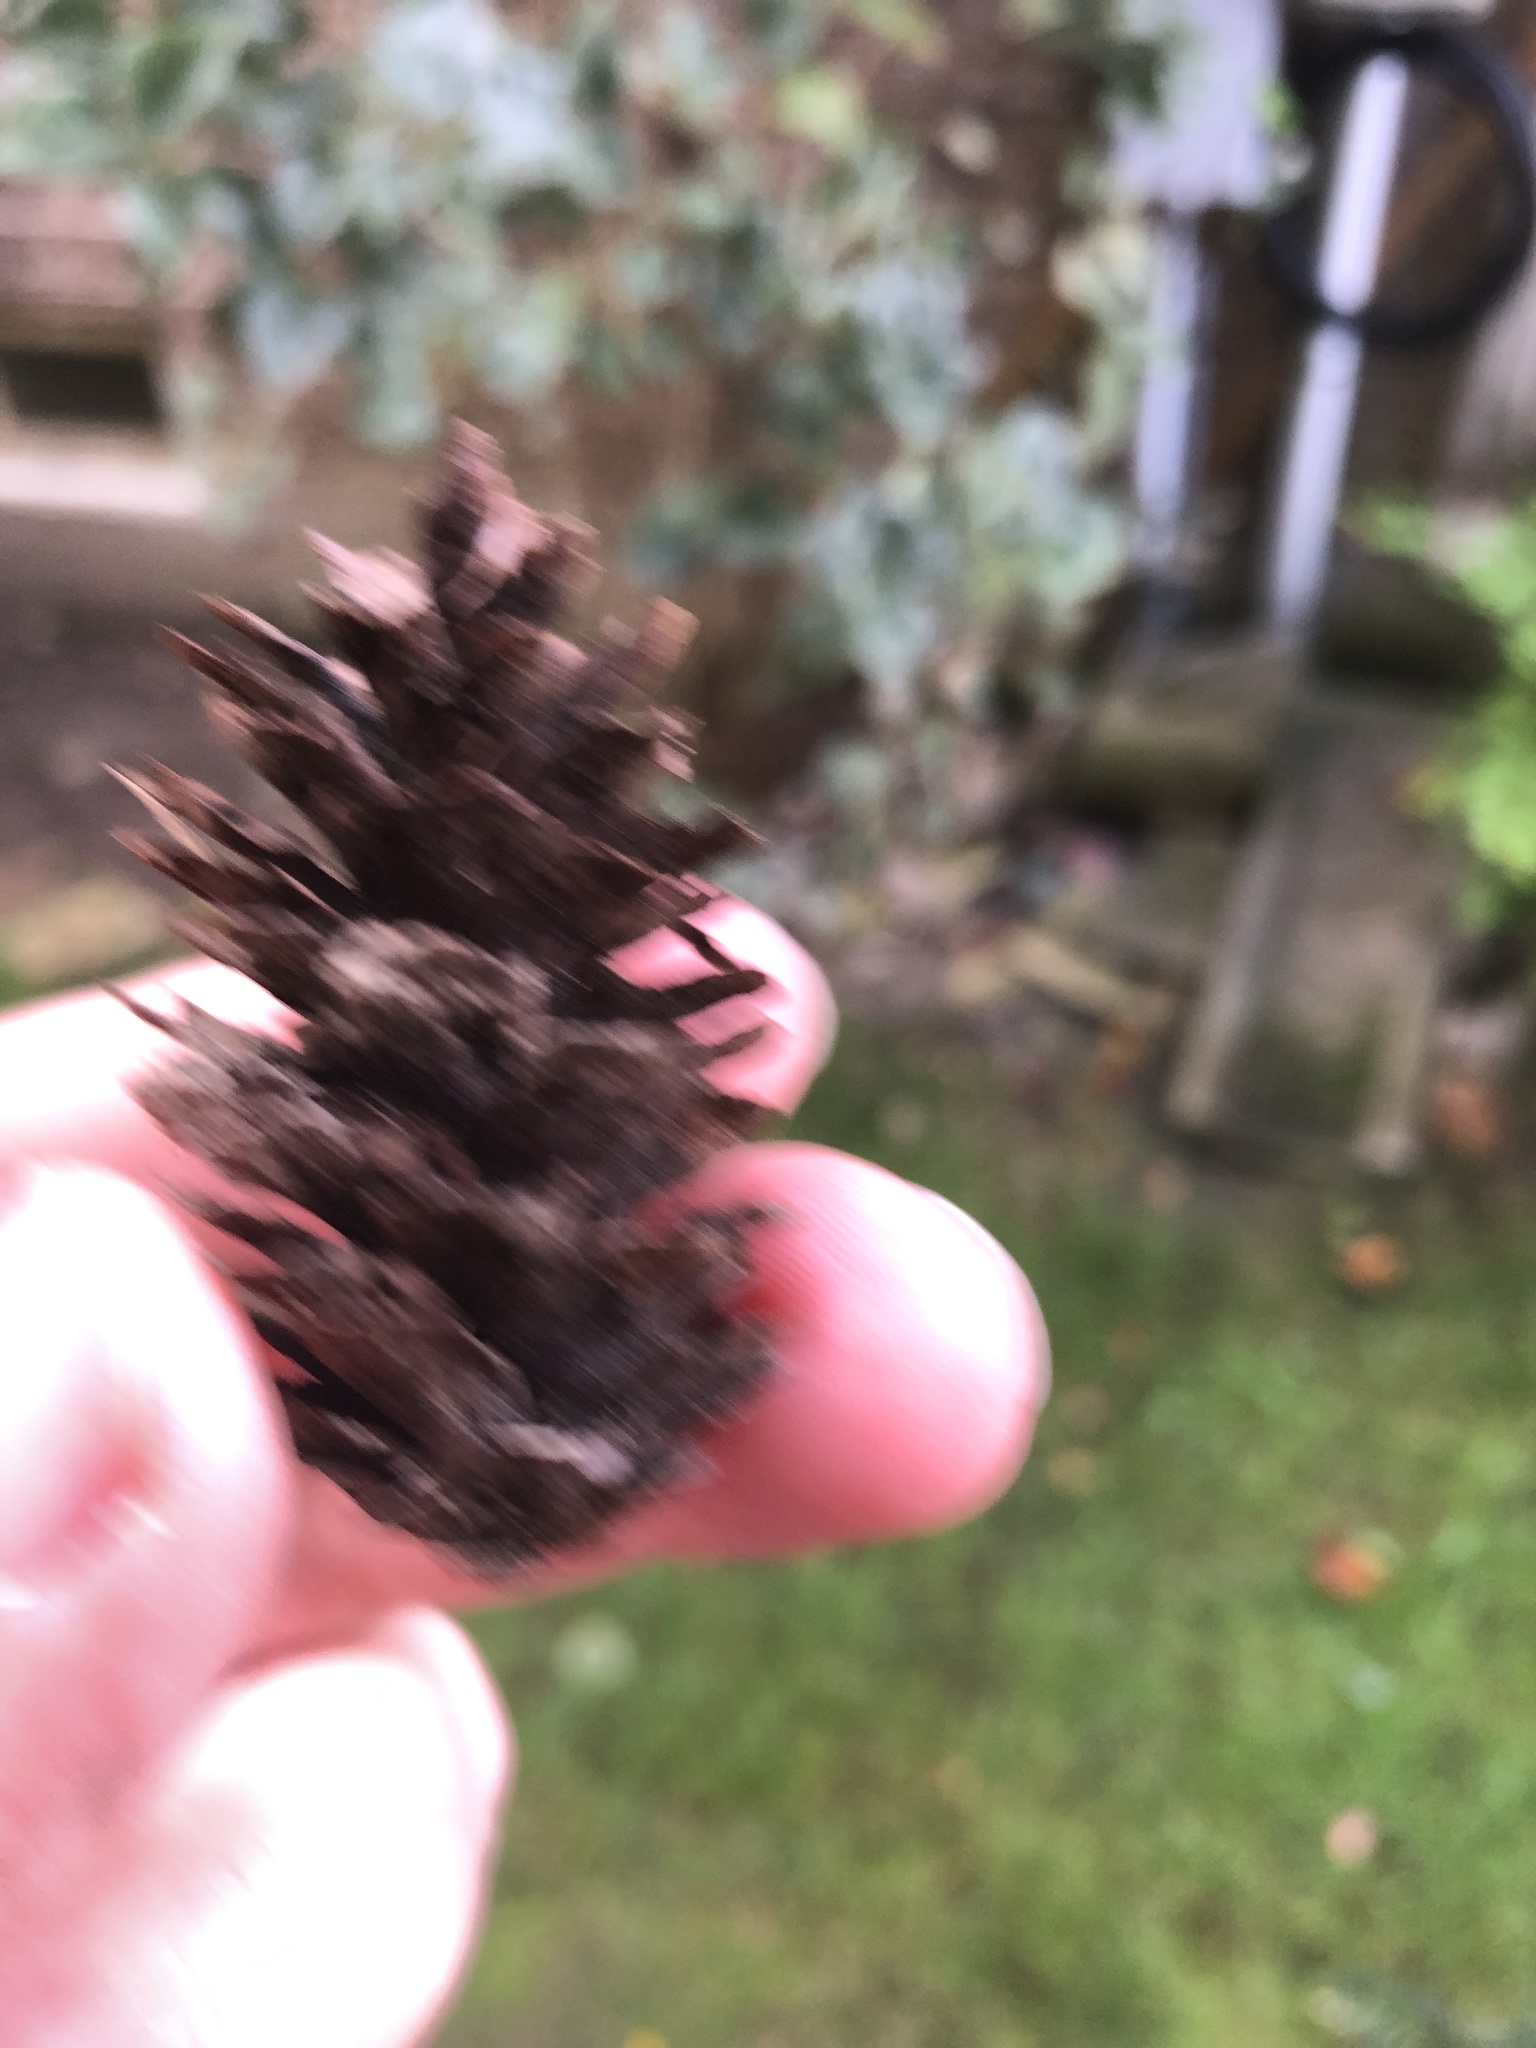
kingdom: Plantae
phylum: Tracheophyta
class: Pinopsida
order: Pinales
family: Pinaceae
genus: Picea
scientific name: Picea glauca
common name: White spruce
